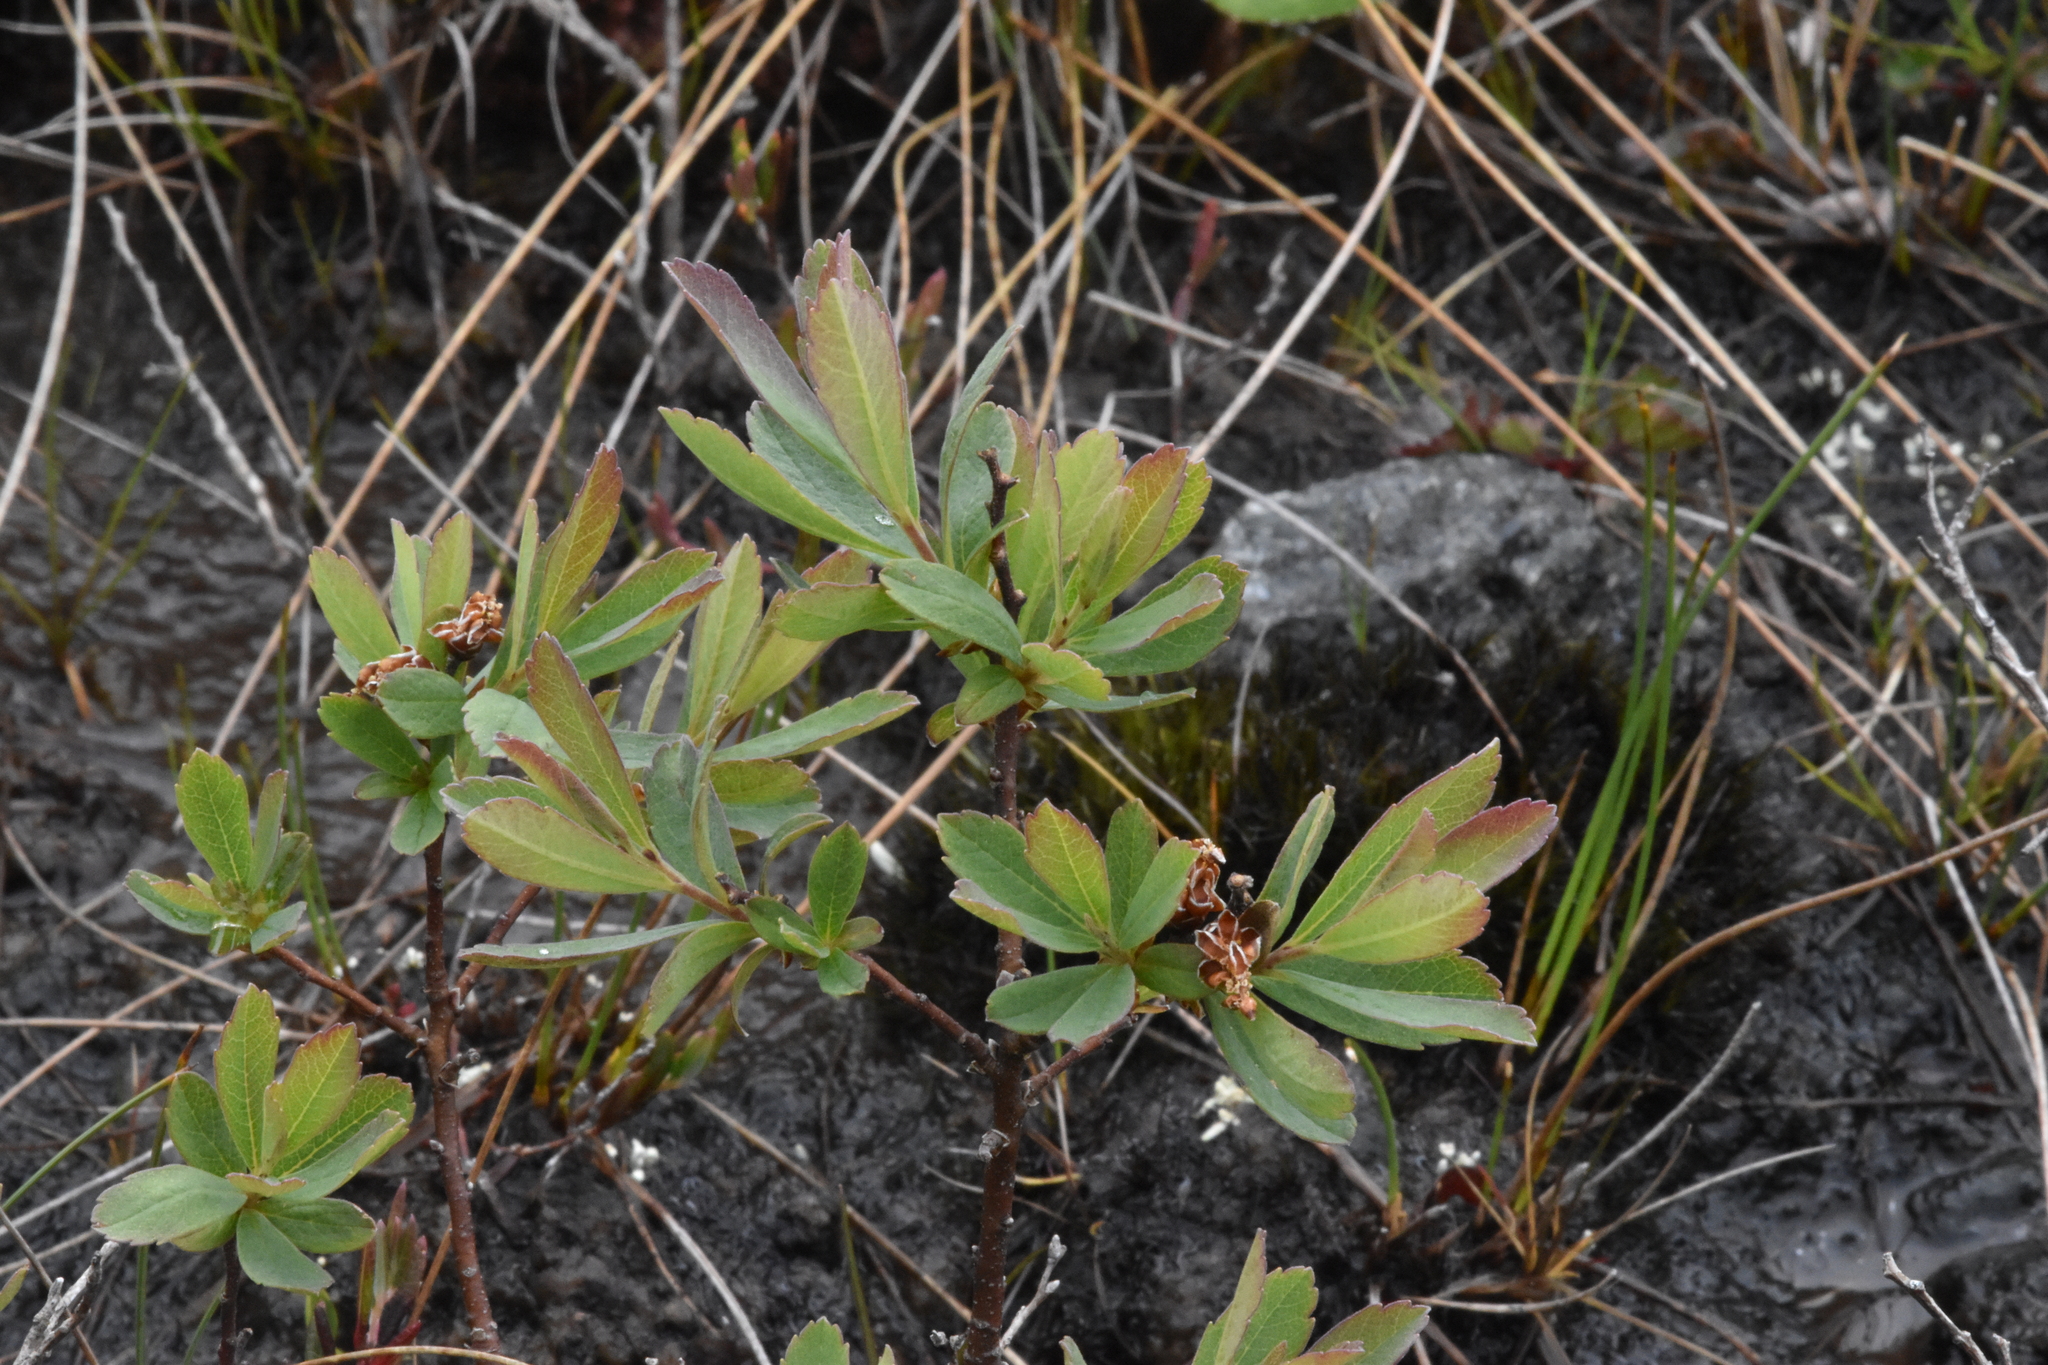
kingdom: Plantae
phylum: Tracheophyta
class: Magnoliopsida
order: Fagales
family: Myricaceae
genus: Myrica
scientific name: Myrica gale
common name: Sweet gale
